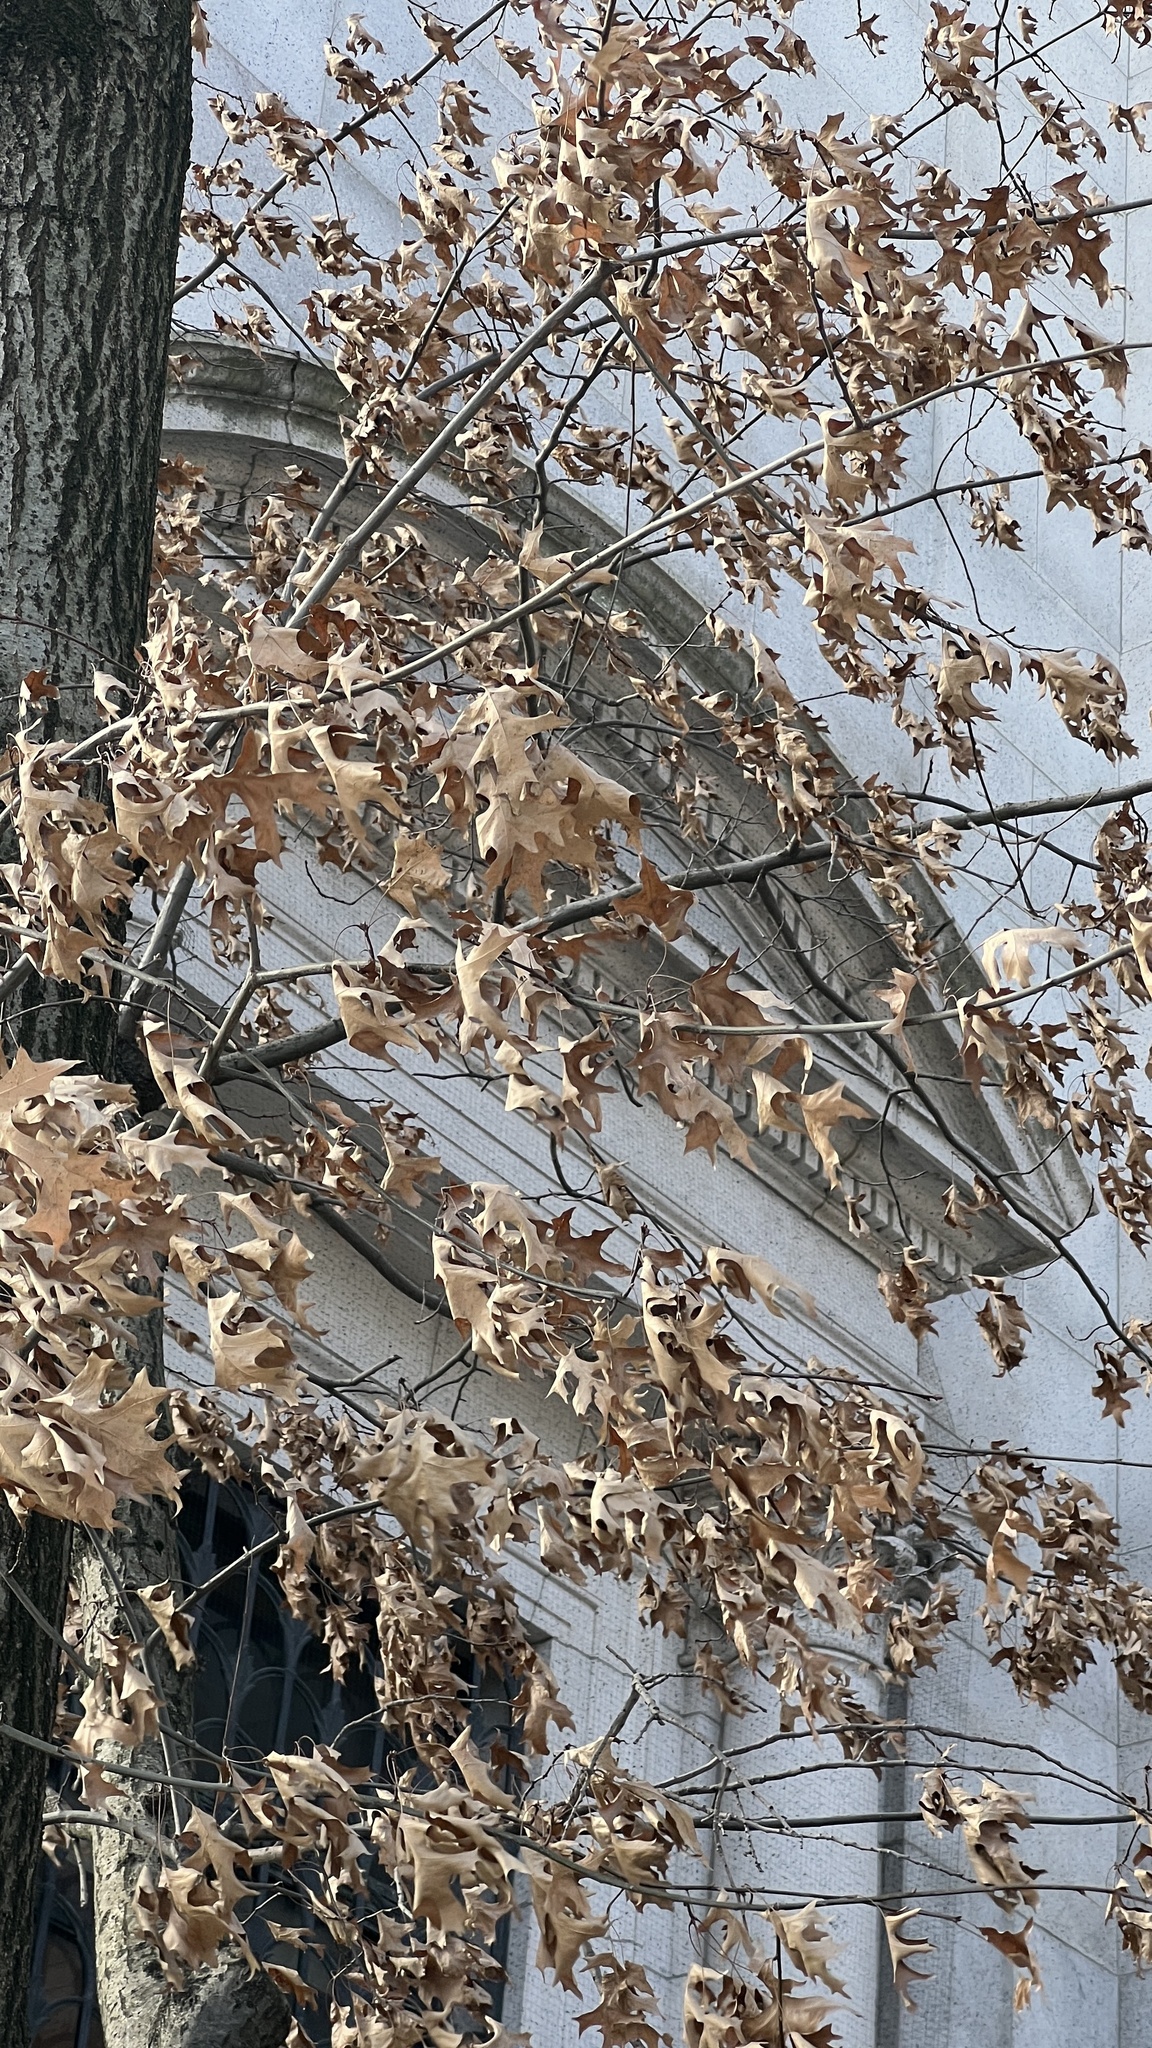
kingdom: Plantae
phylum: Tracheophyta
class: Magnoliopsida
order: Fagales
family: Fagaceae
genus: Quercus
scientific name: Quercus palustris
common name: Pin oak
